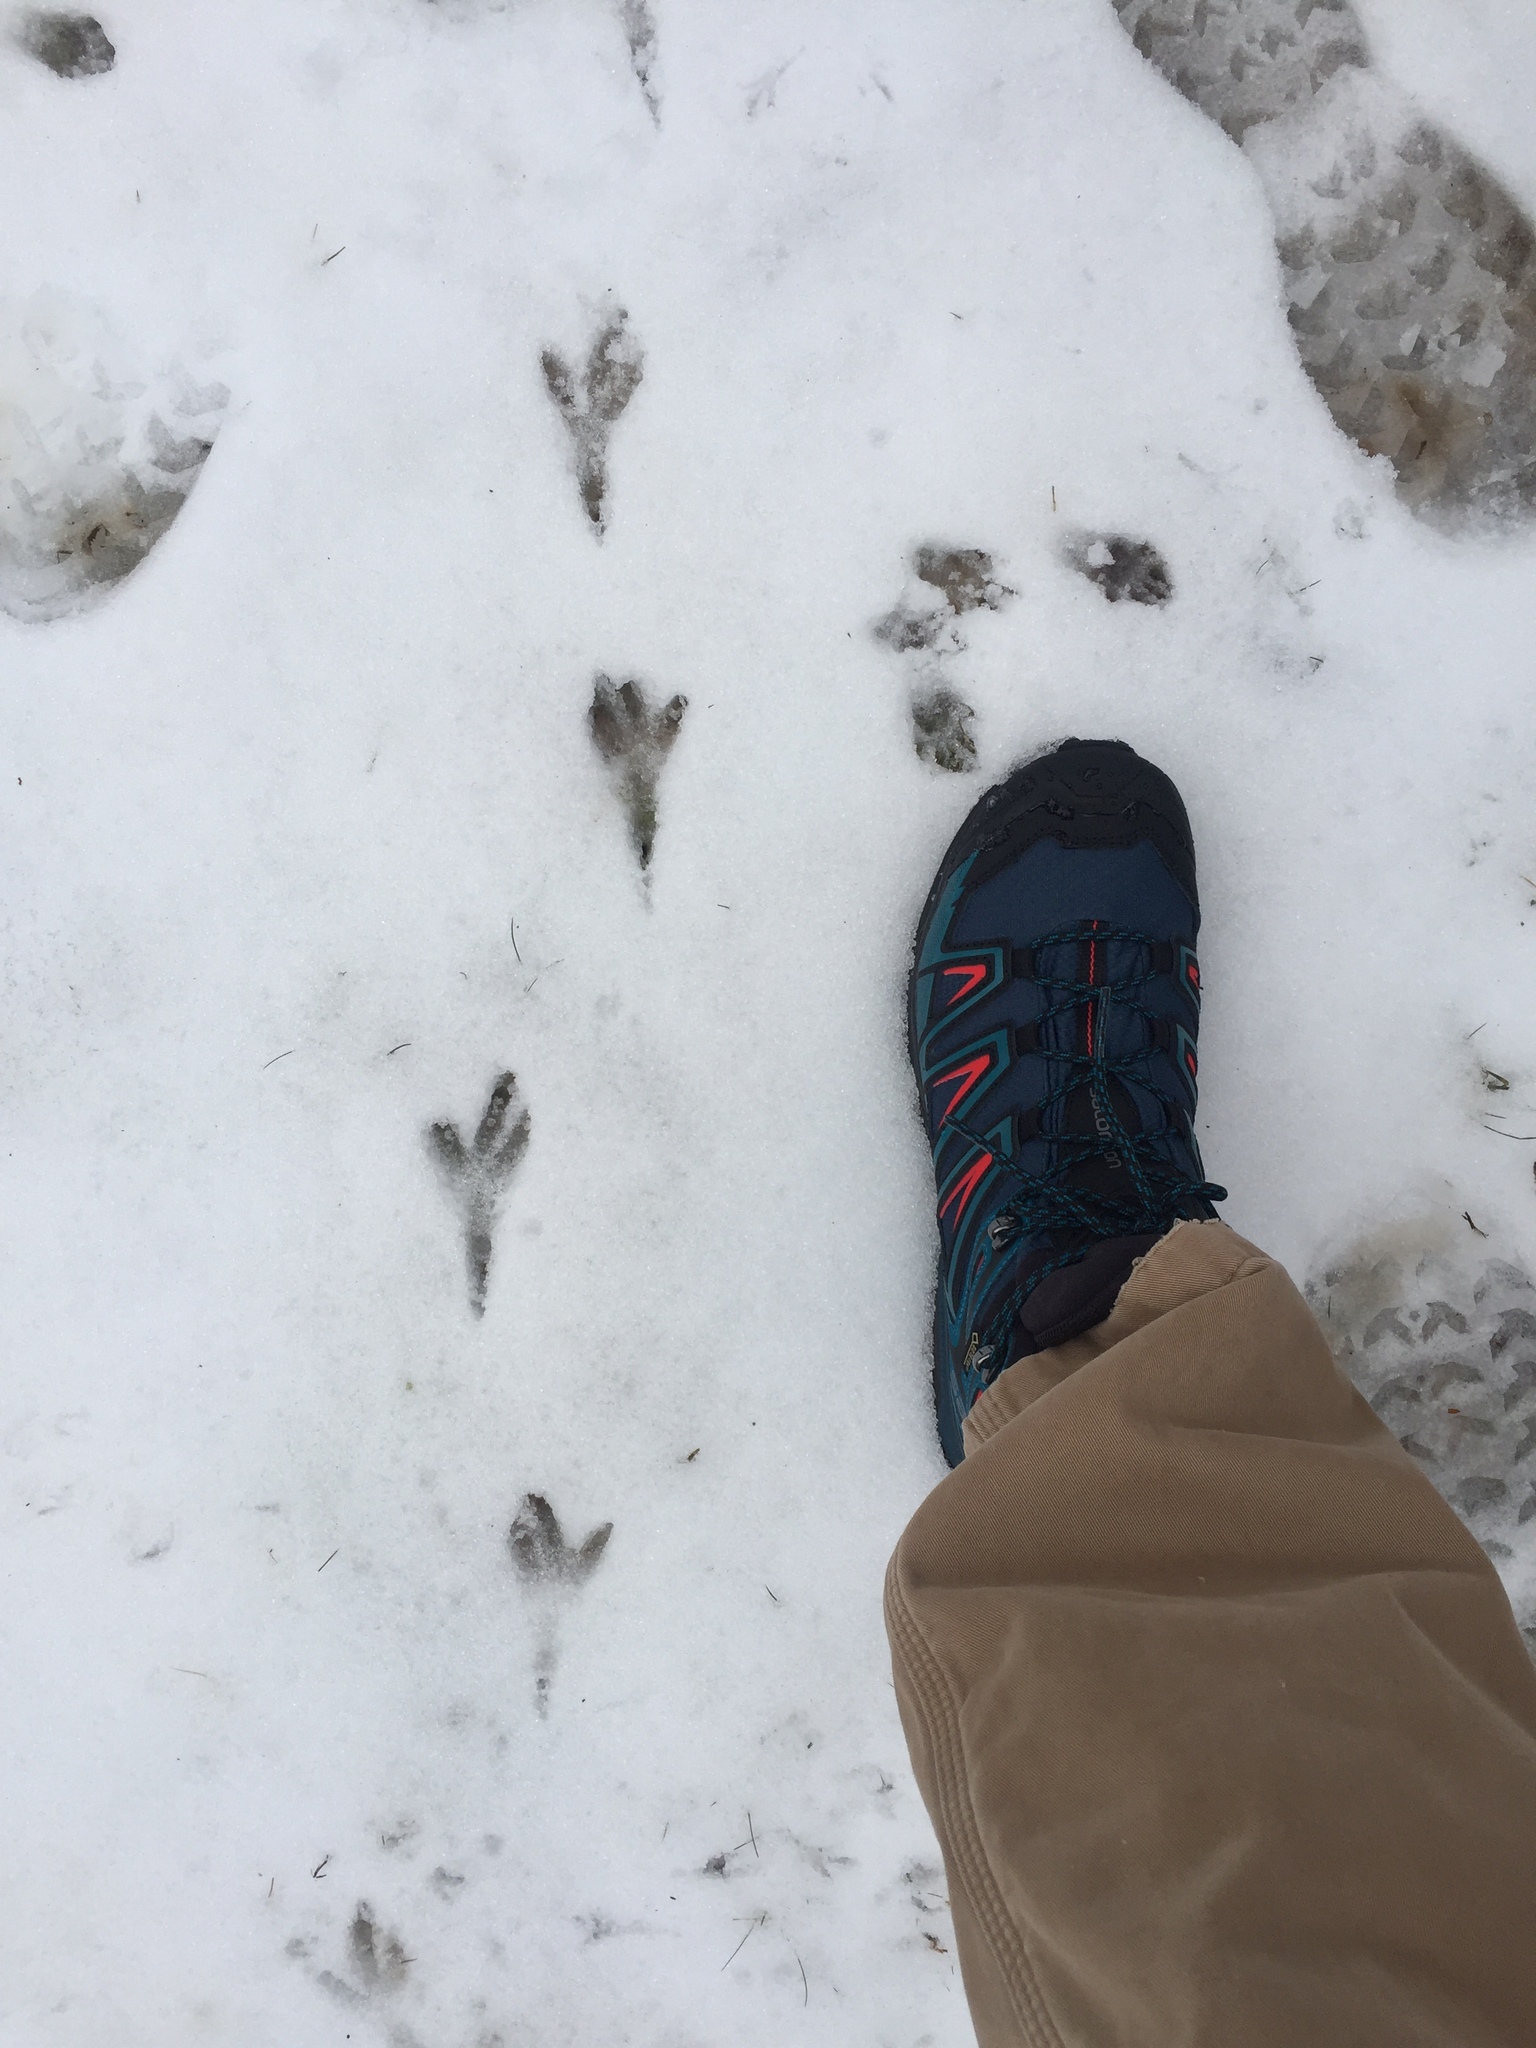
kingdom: Animalia
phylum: Chordata
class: Aves
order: Passeriformes
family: Corvidae
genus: Corvus
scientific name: Corvus brachyrhynchos
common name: American crow
